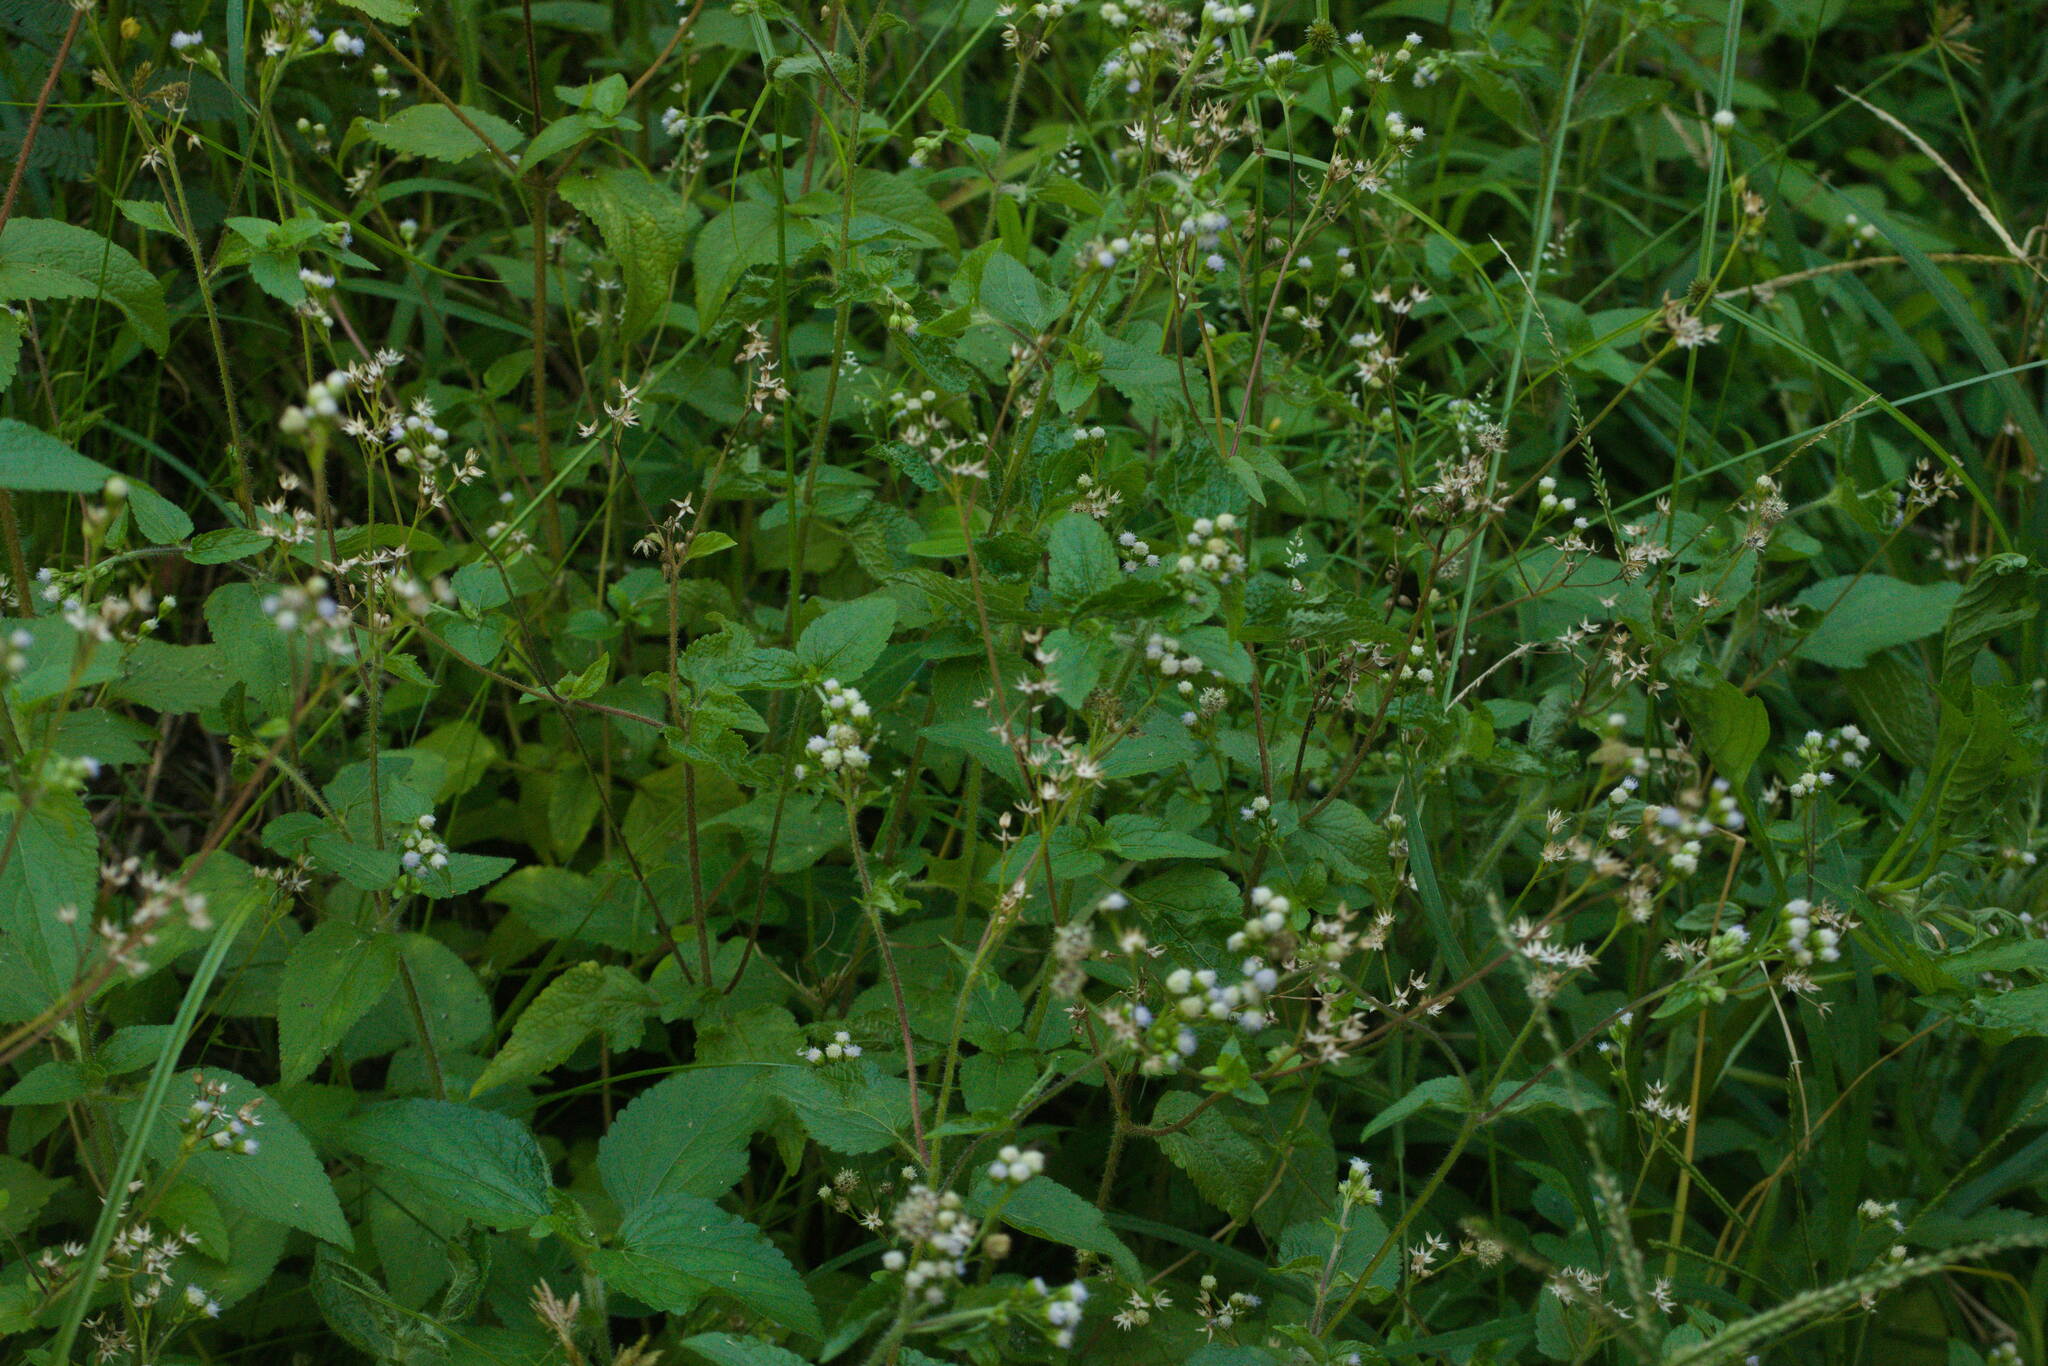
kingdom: Plantae
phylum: Tracheophyta
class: Magnoliopsida
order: Asterales
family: Asteraceae
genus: Ageratum
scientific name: Ageratum conyzoides
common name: Tropical whiteweed
